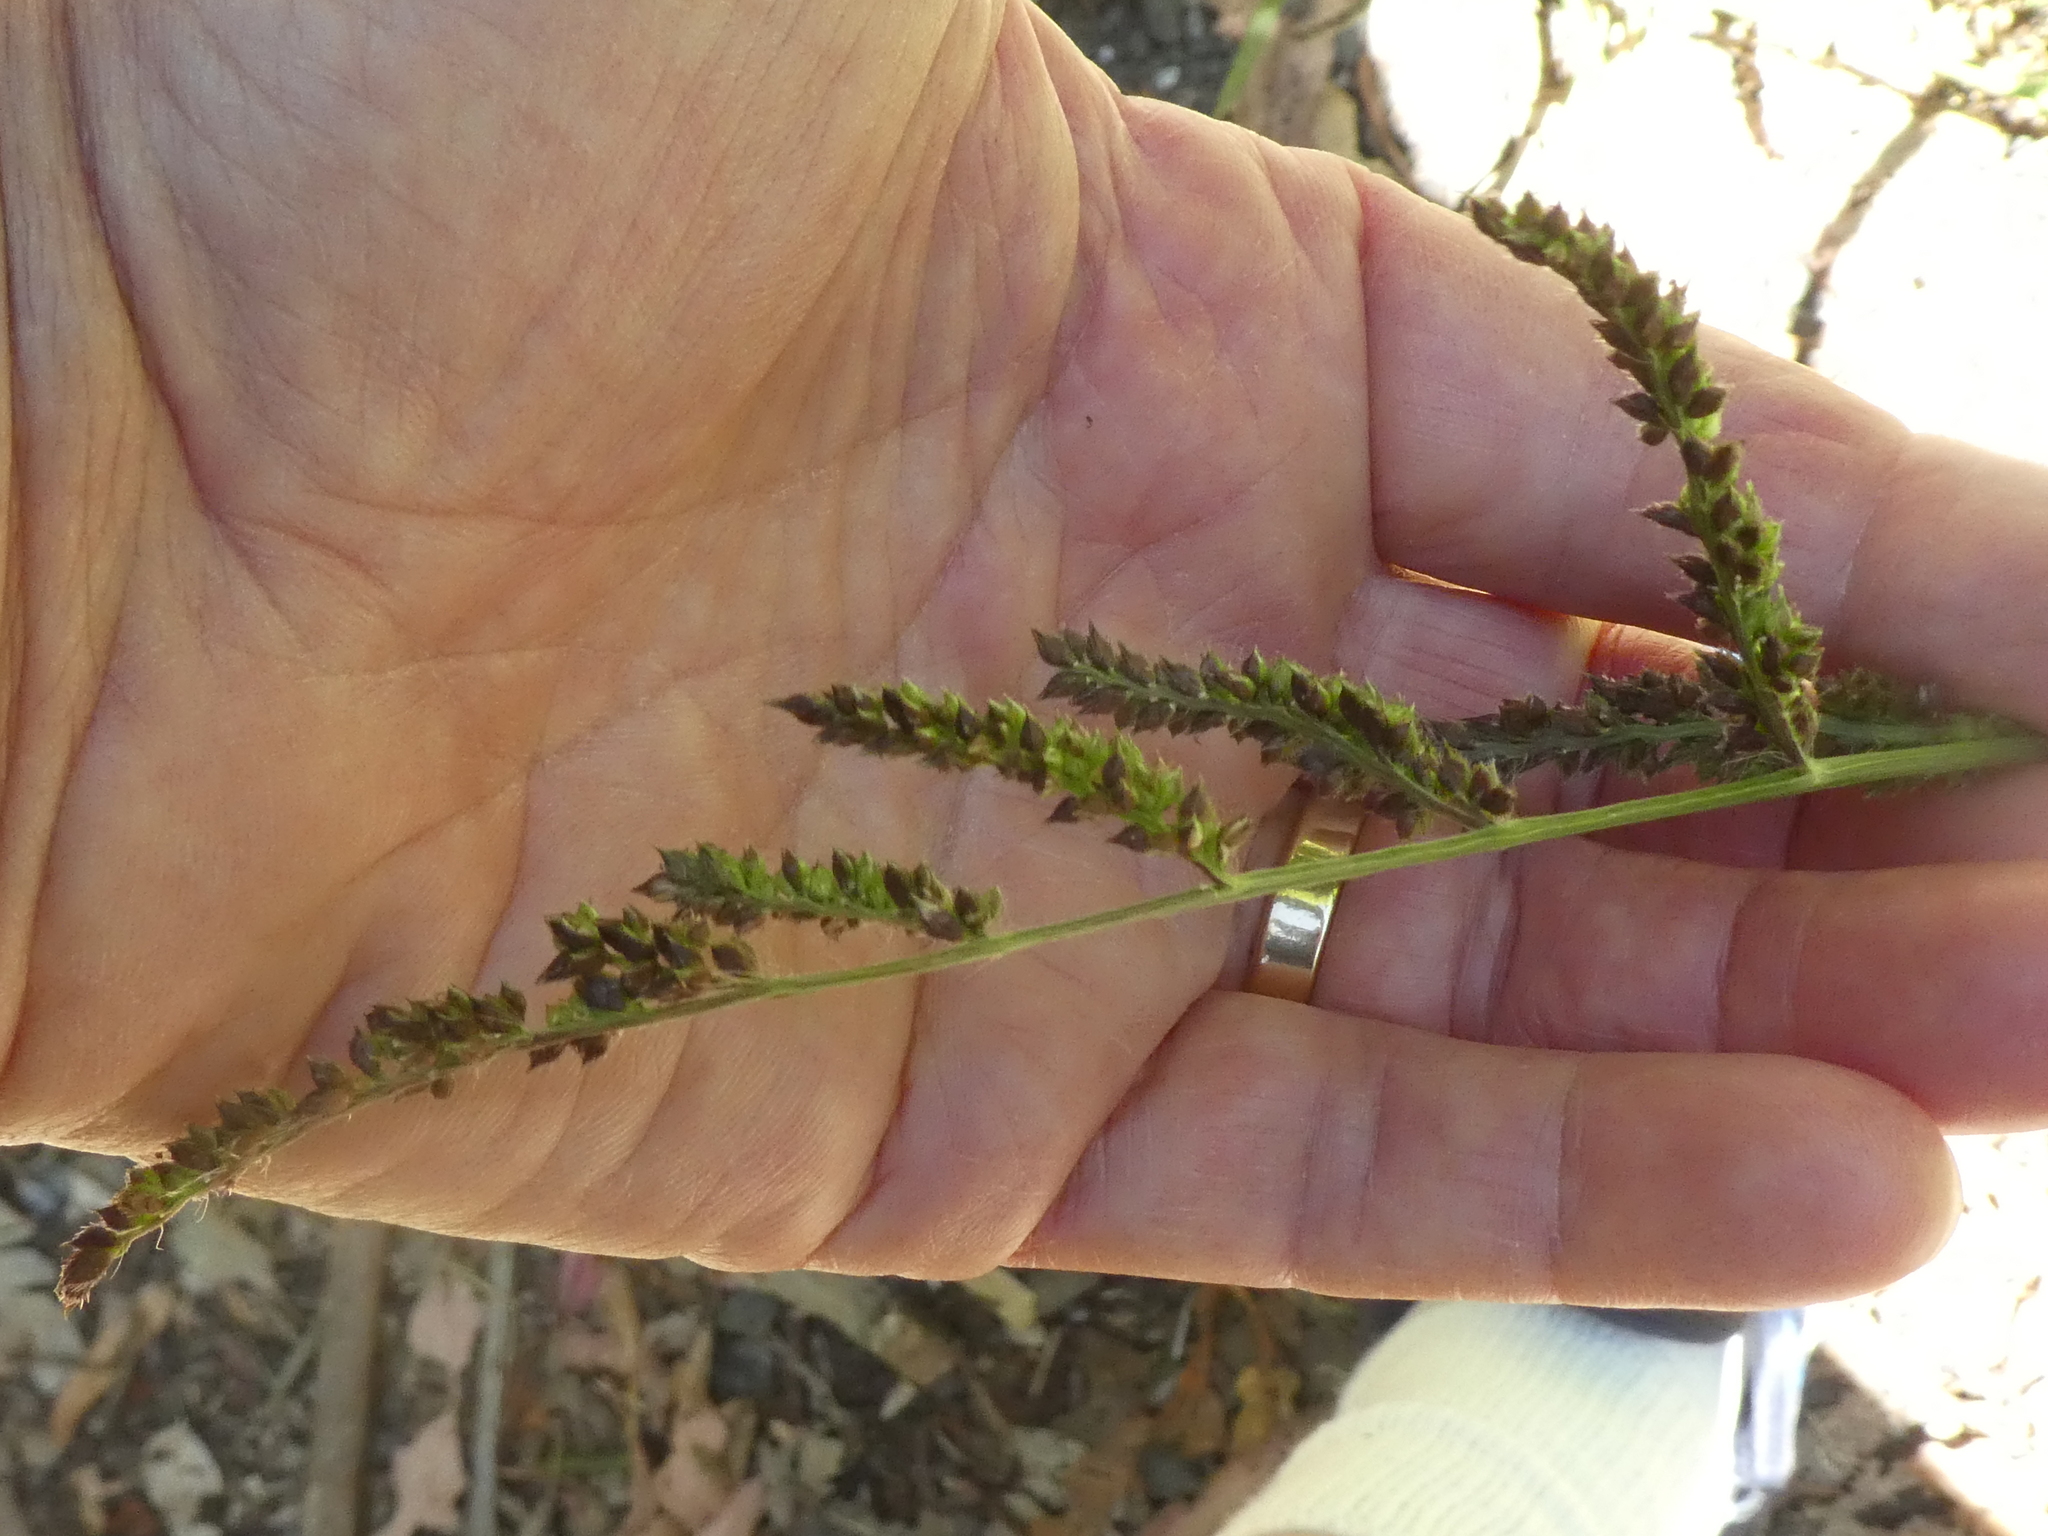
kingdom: Plantae
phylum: Tracheophyta
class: Liliopsida
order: Poales
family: Poaceae
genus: Echinochloa
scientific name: Echinochloa crus-galli
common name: Cockspur
